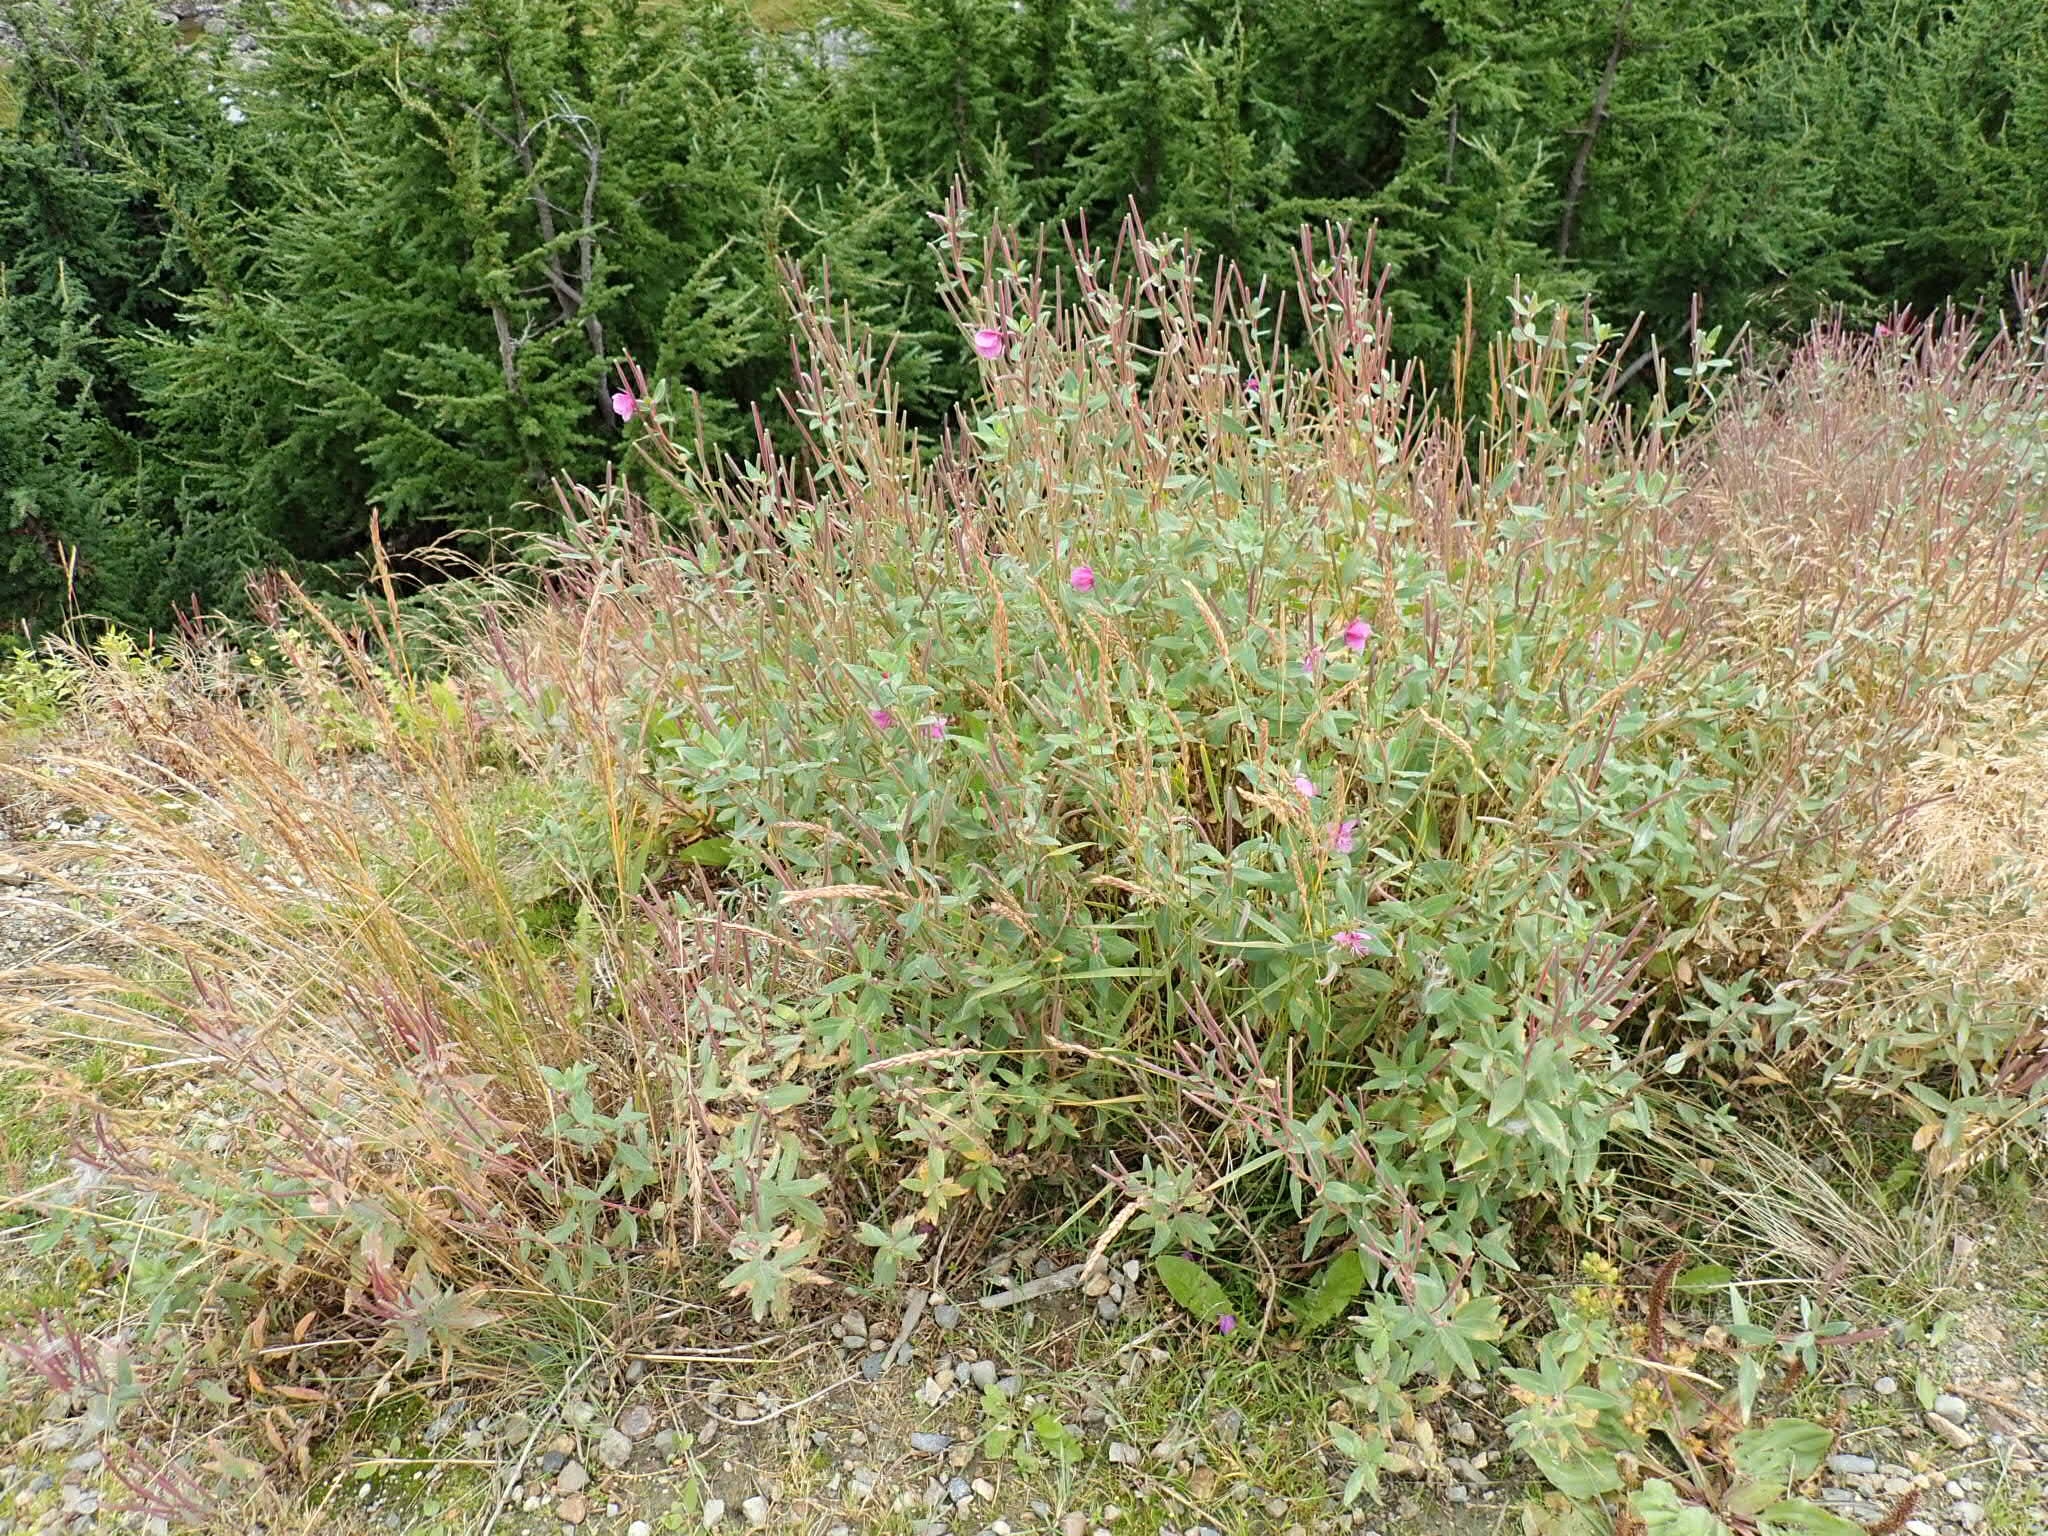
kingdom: Plantae
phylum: Tracheophyta
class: Magnoliopsida
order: Myrtales
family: Onagraceae
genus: Chamaenerion
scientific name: Chamaenerion latifolium
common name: Dwarf fireweed
